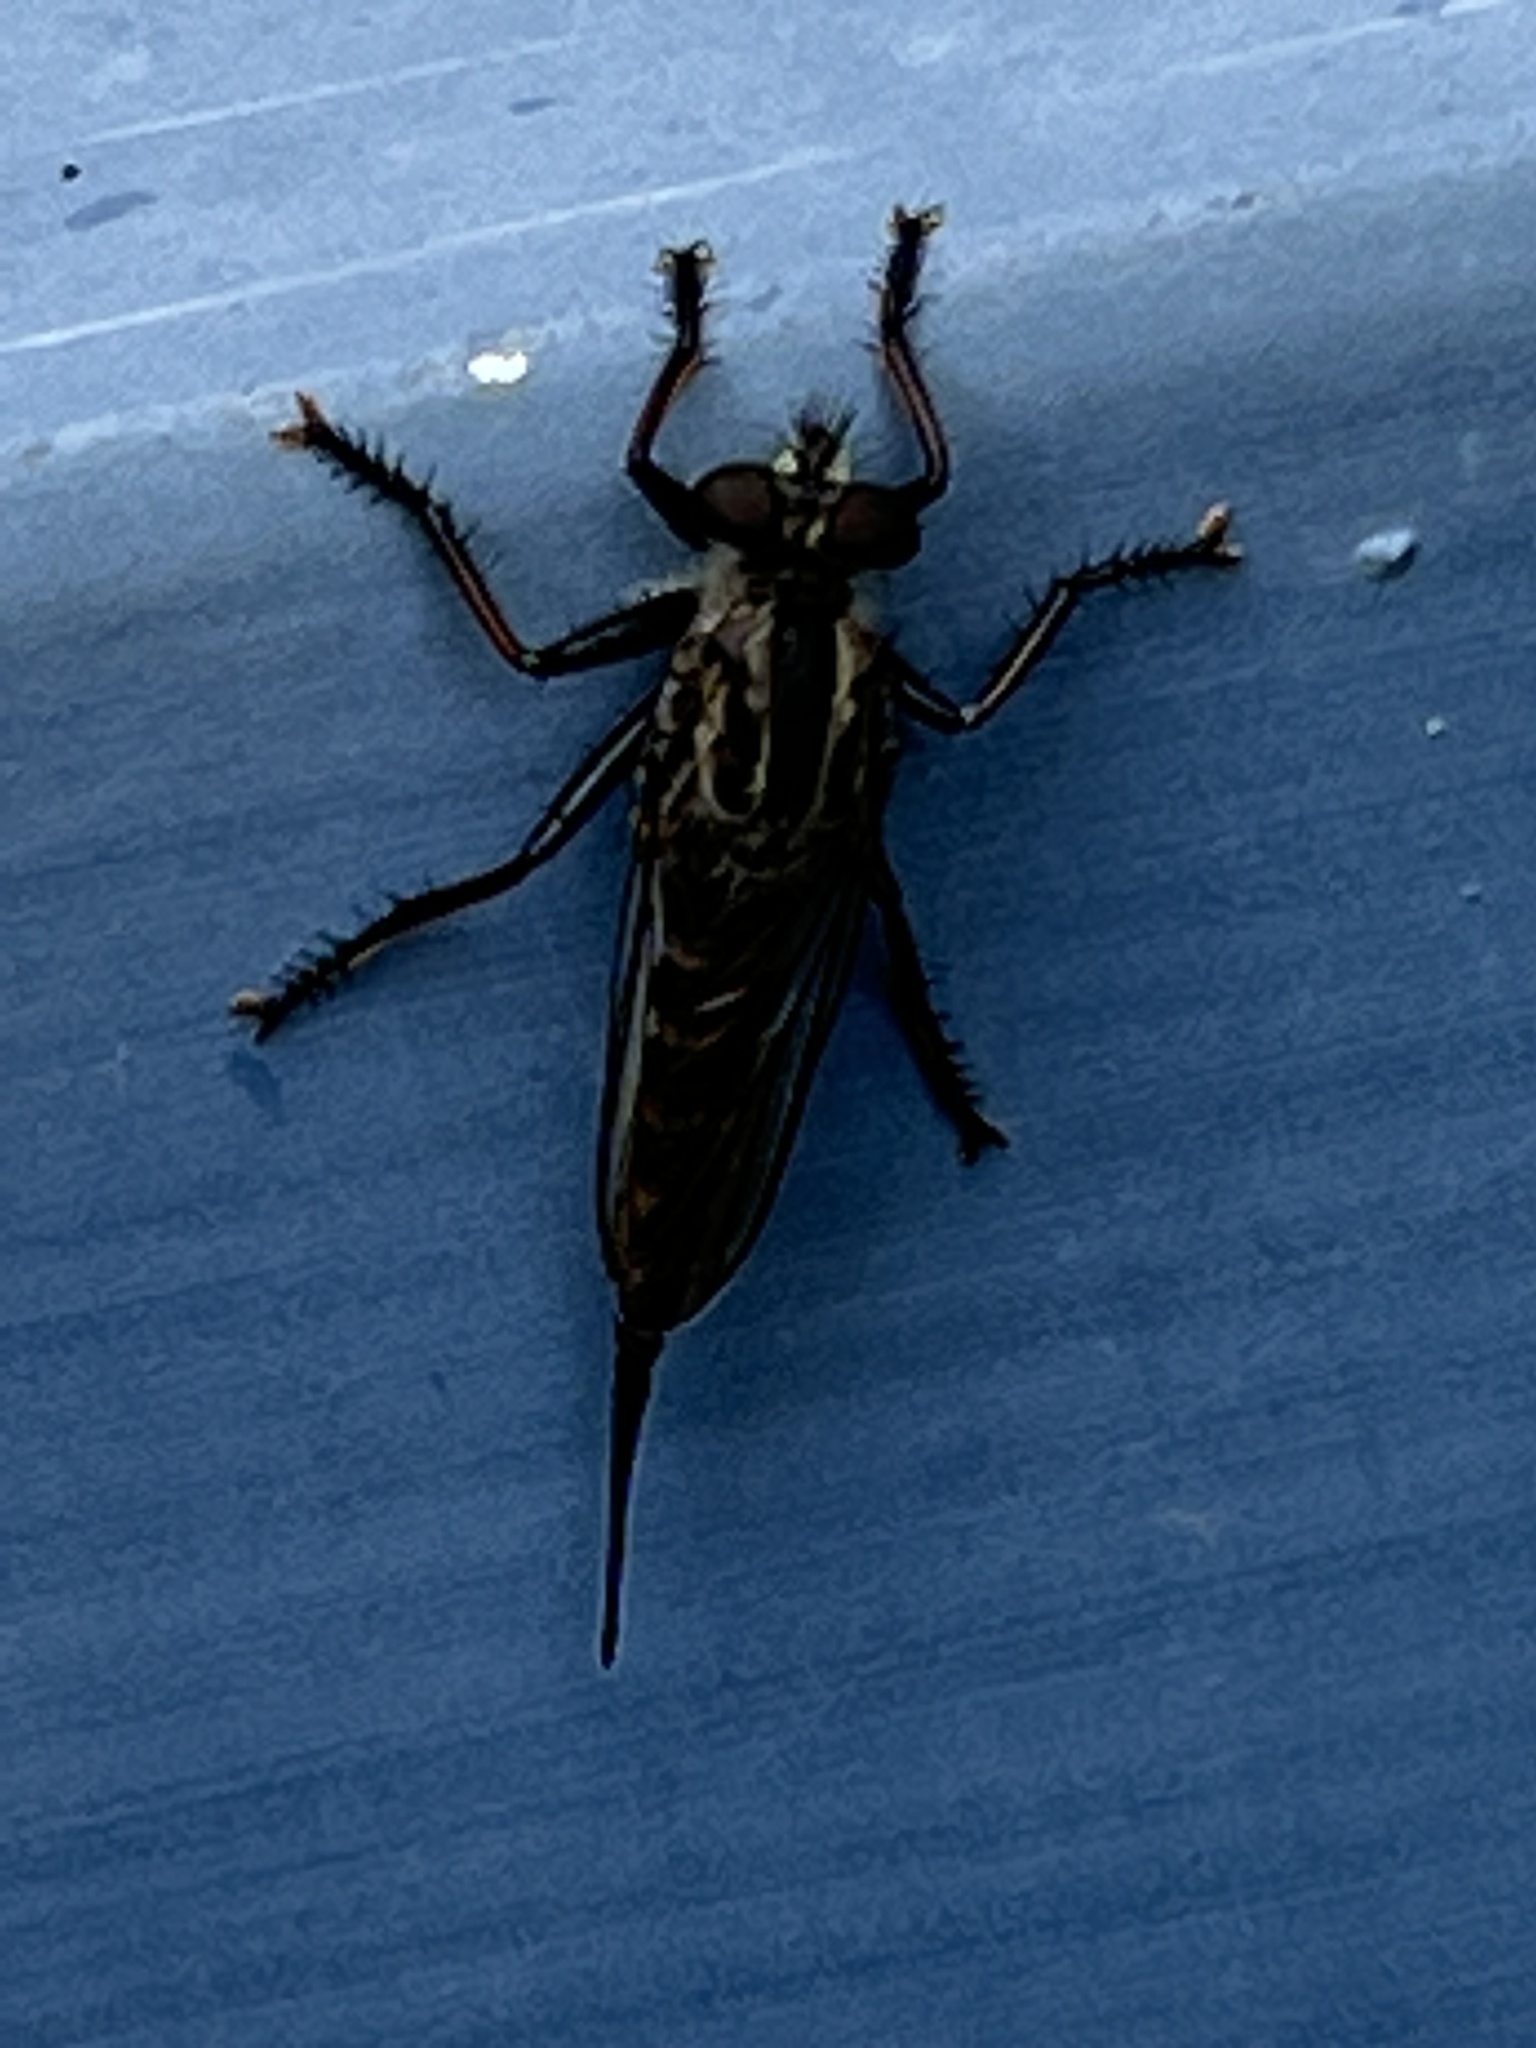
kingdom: Animalia
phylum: Arthropoda
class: Insecta
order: Diptera
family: Asilidae
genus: Efferia
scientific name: Efferia aestuans
